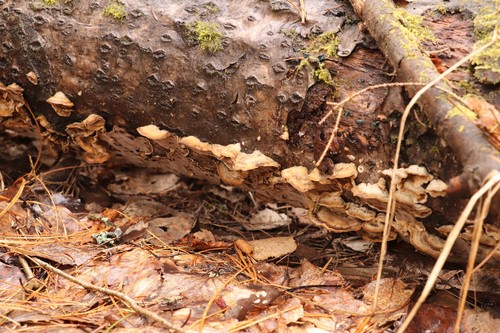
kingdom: Fungi
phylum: Basidiomycota
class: Agaricomycetes
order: Polyporales
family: Phanerochaetaceae
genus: Bjerkandera
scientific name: Bjerkandera adusta
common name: Smoky bracket
